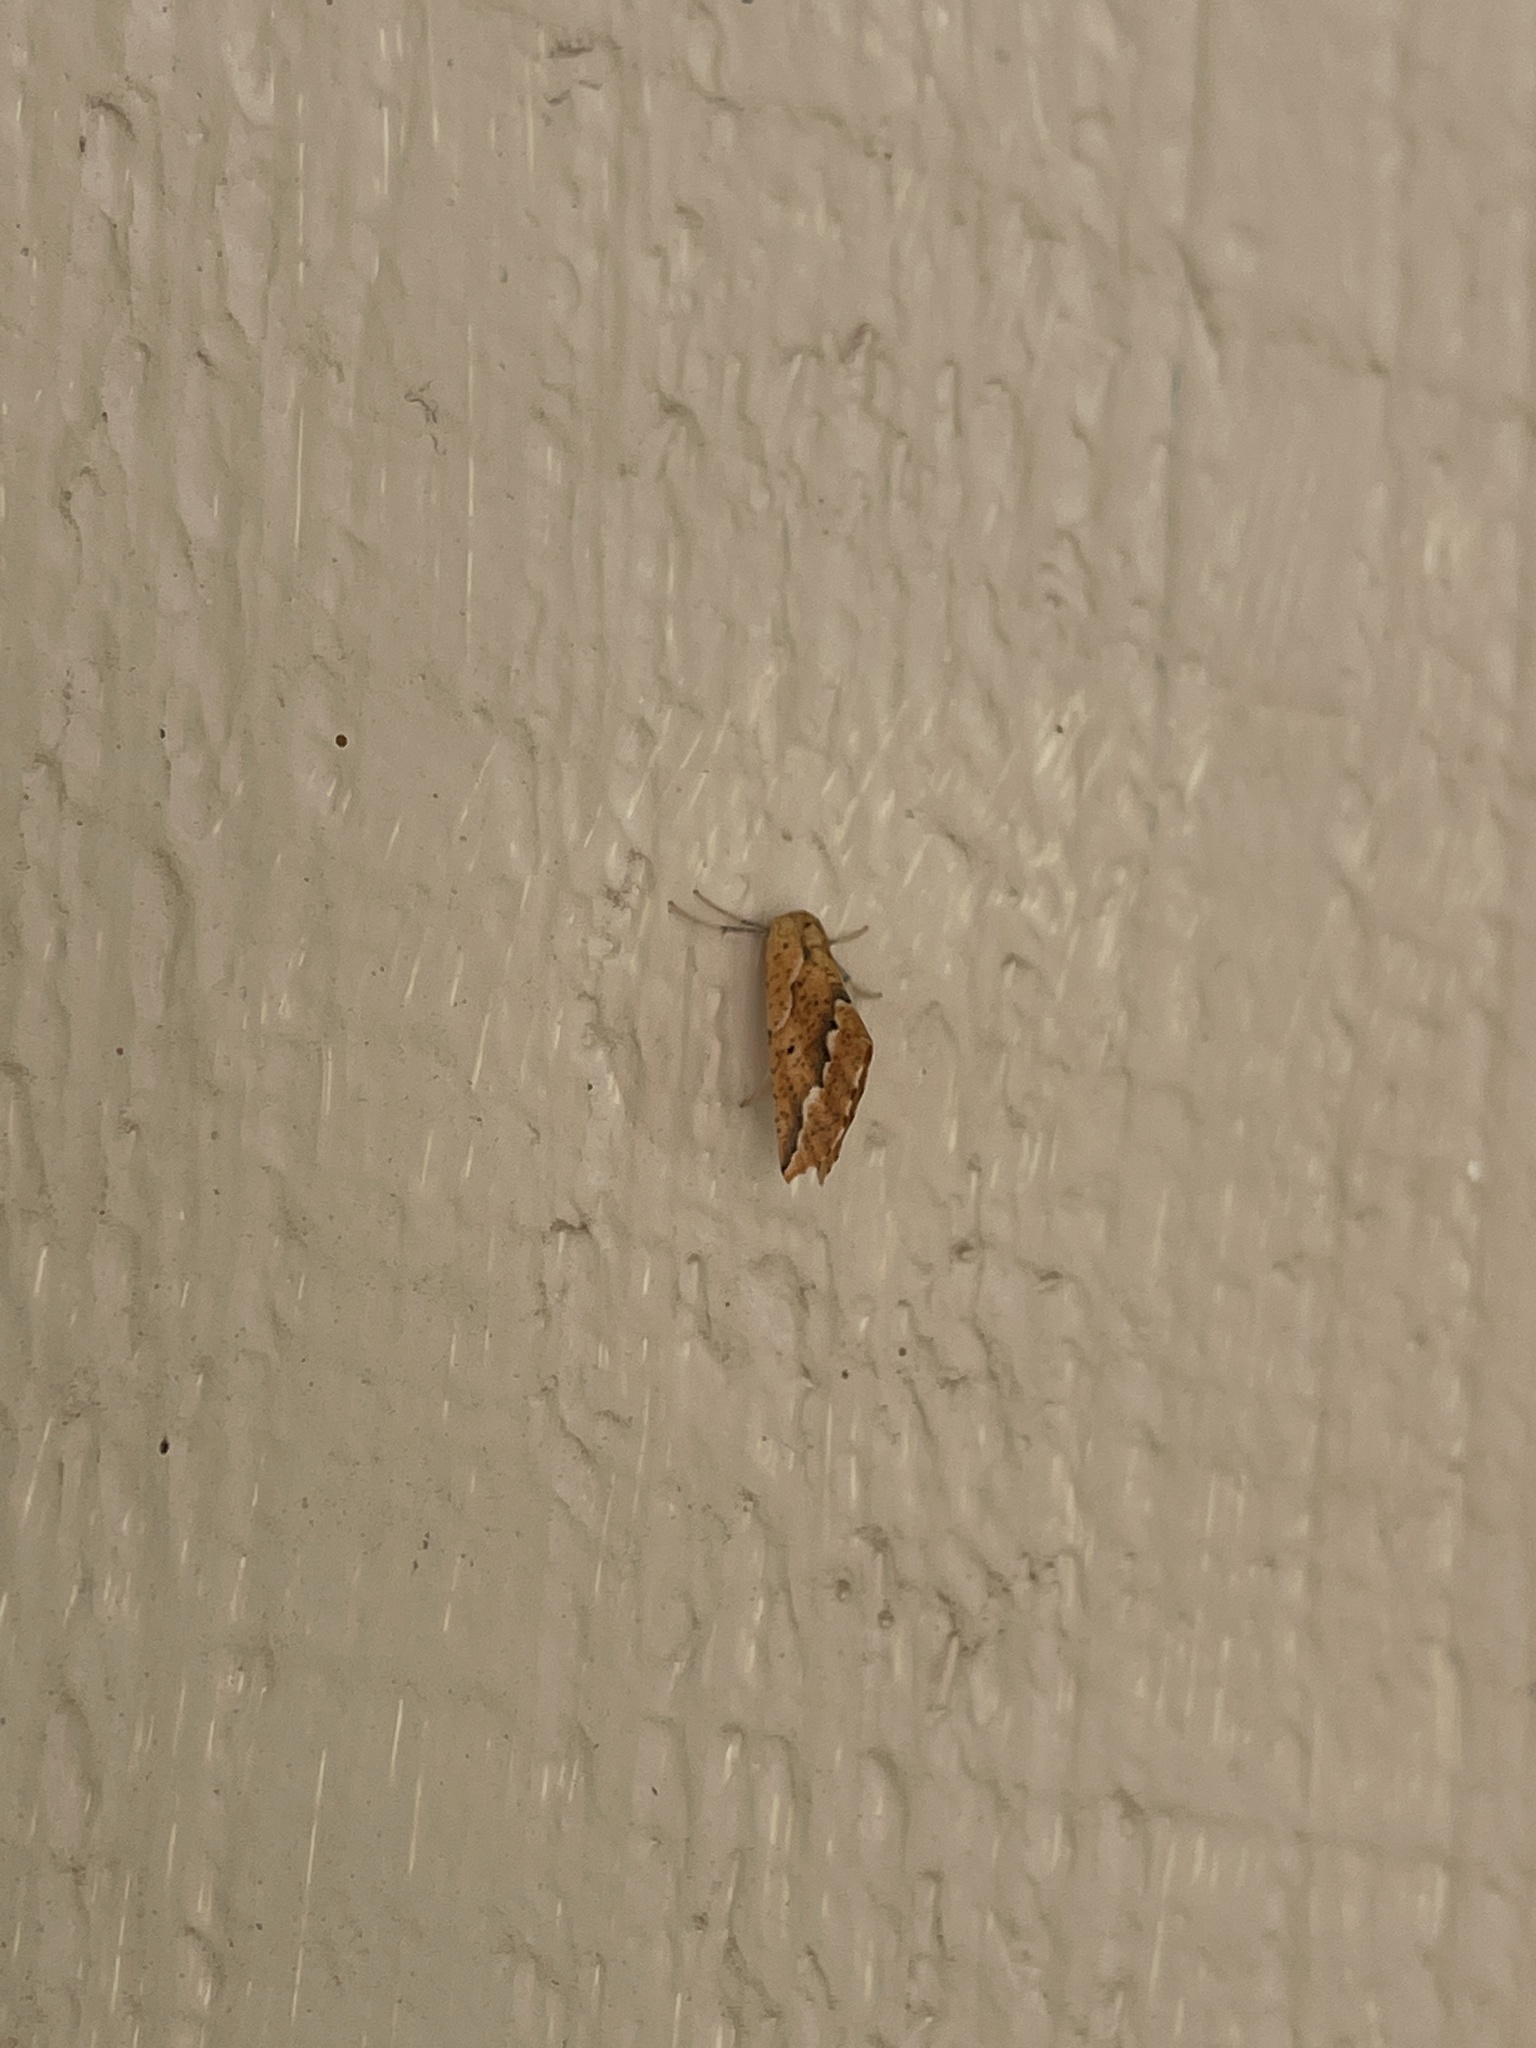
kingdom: Animalia
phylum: Arthropoda
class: Insecta
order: Lepidoptera
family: Geometridae
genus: Sicya
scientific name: Sicya morsicaria
